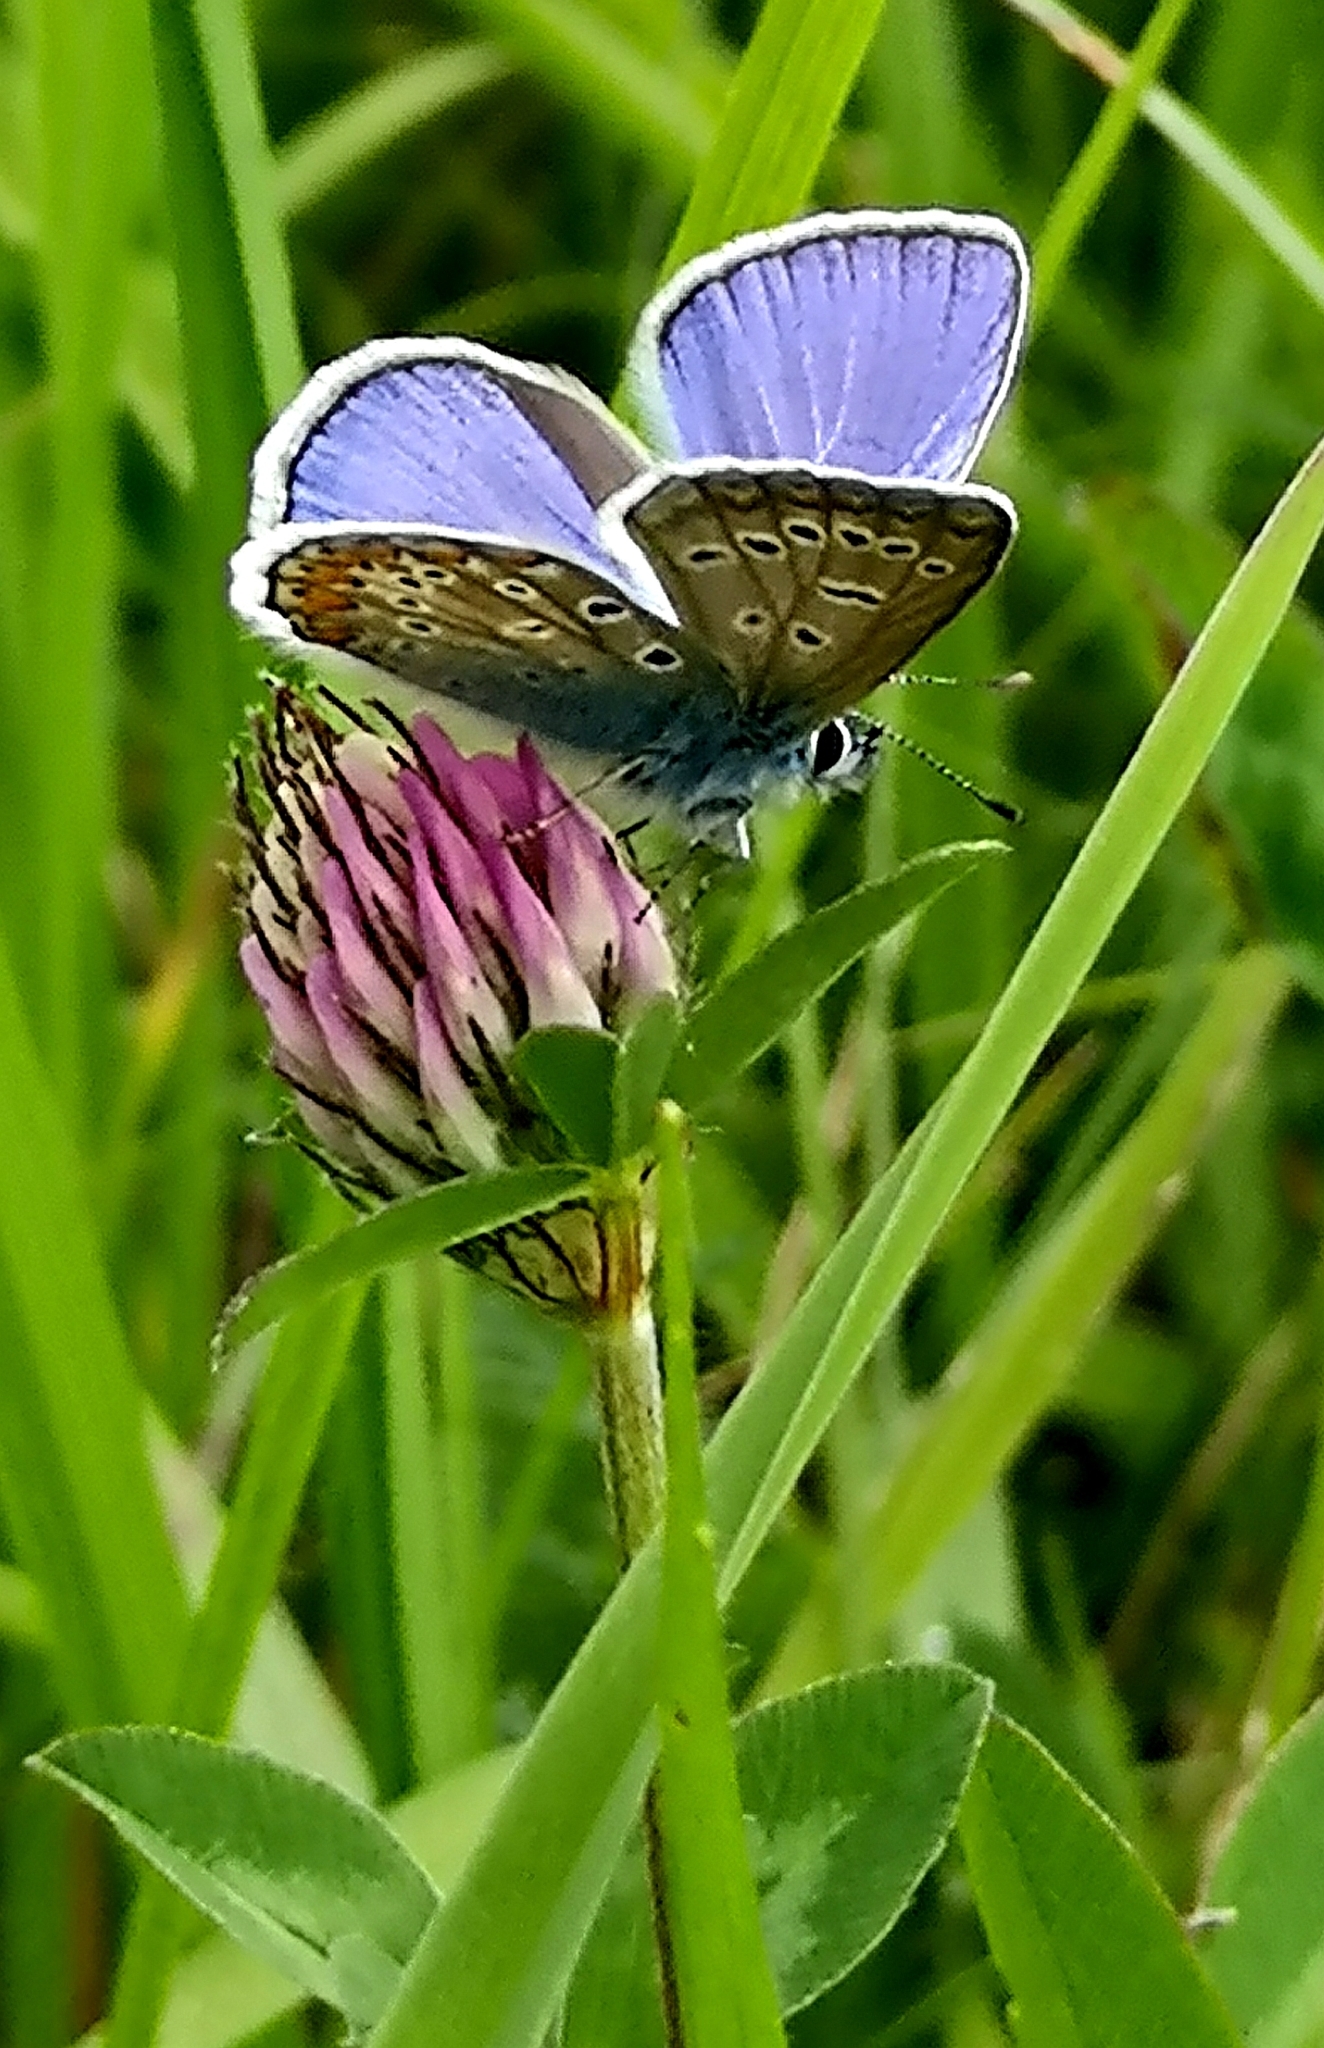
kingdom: Animalia
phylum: Arthropoda
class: Insecta
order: Lepidoptera
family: Lycaenidae
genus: Polyommatus
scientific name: Polyommatus icarus
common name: Common blue
